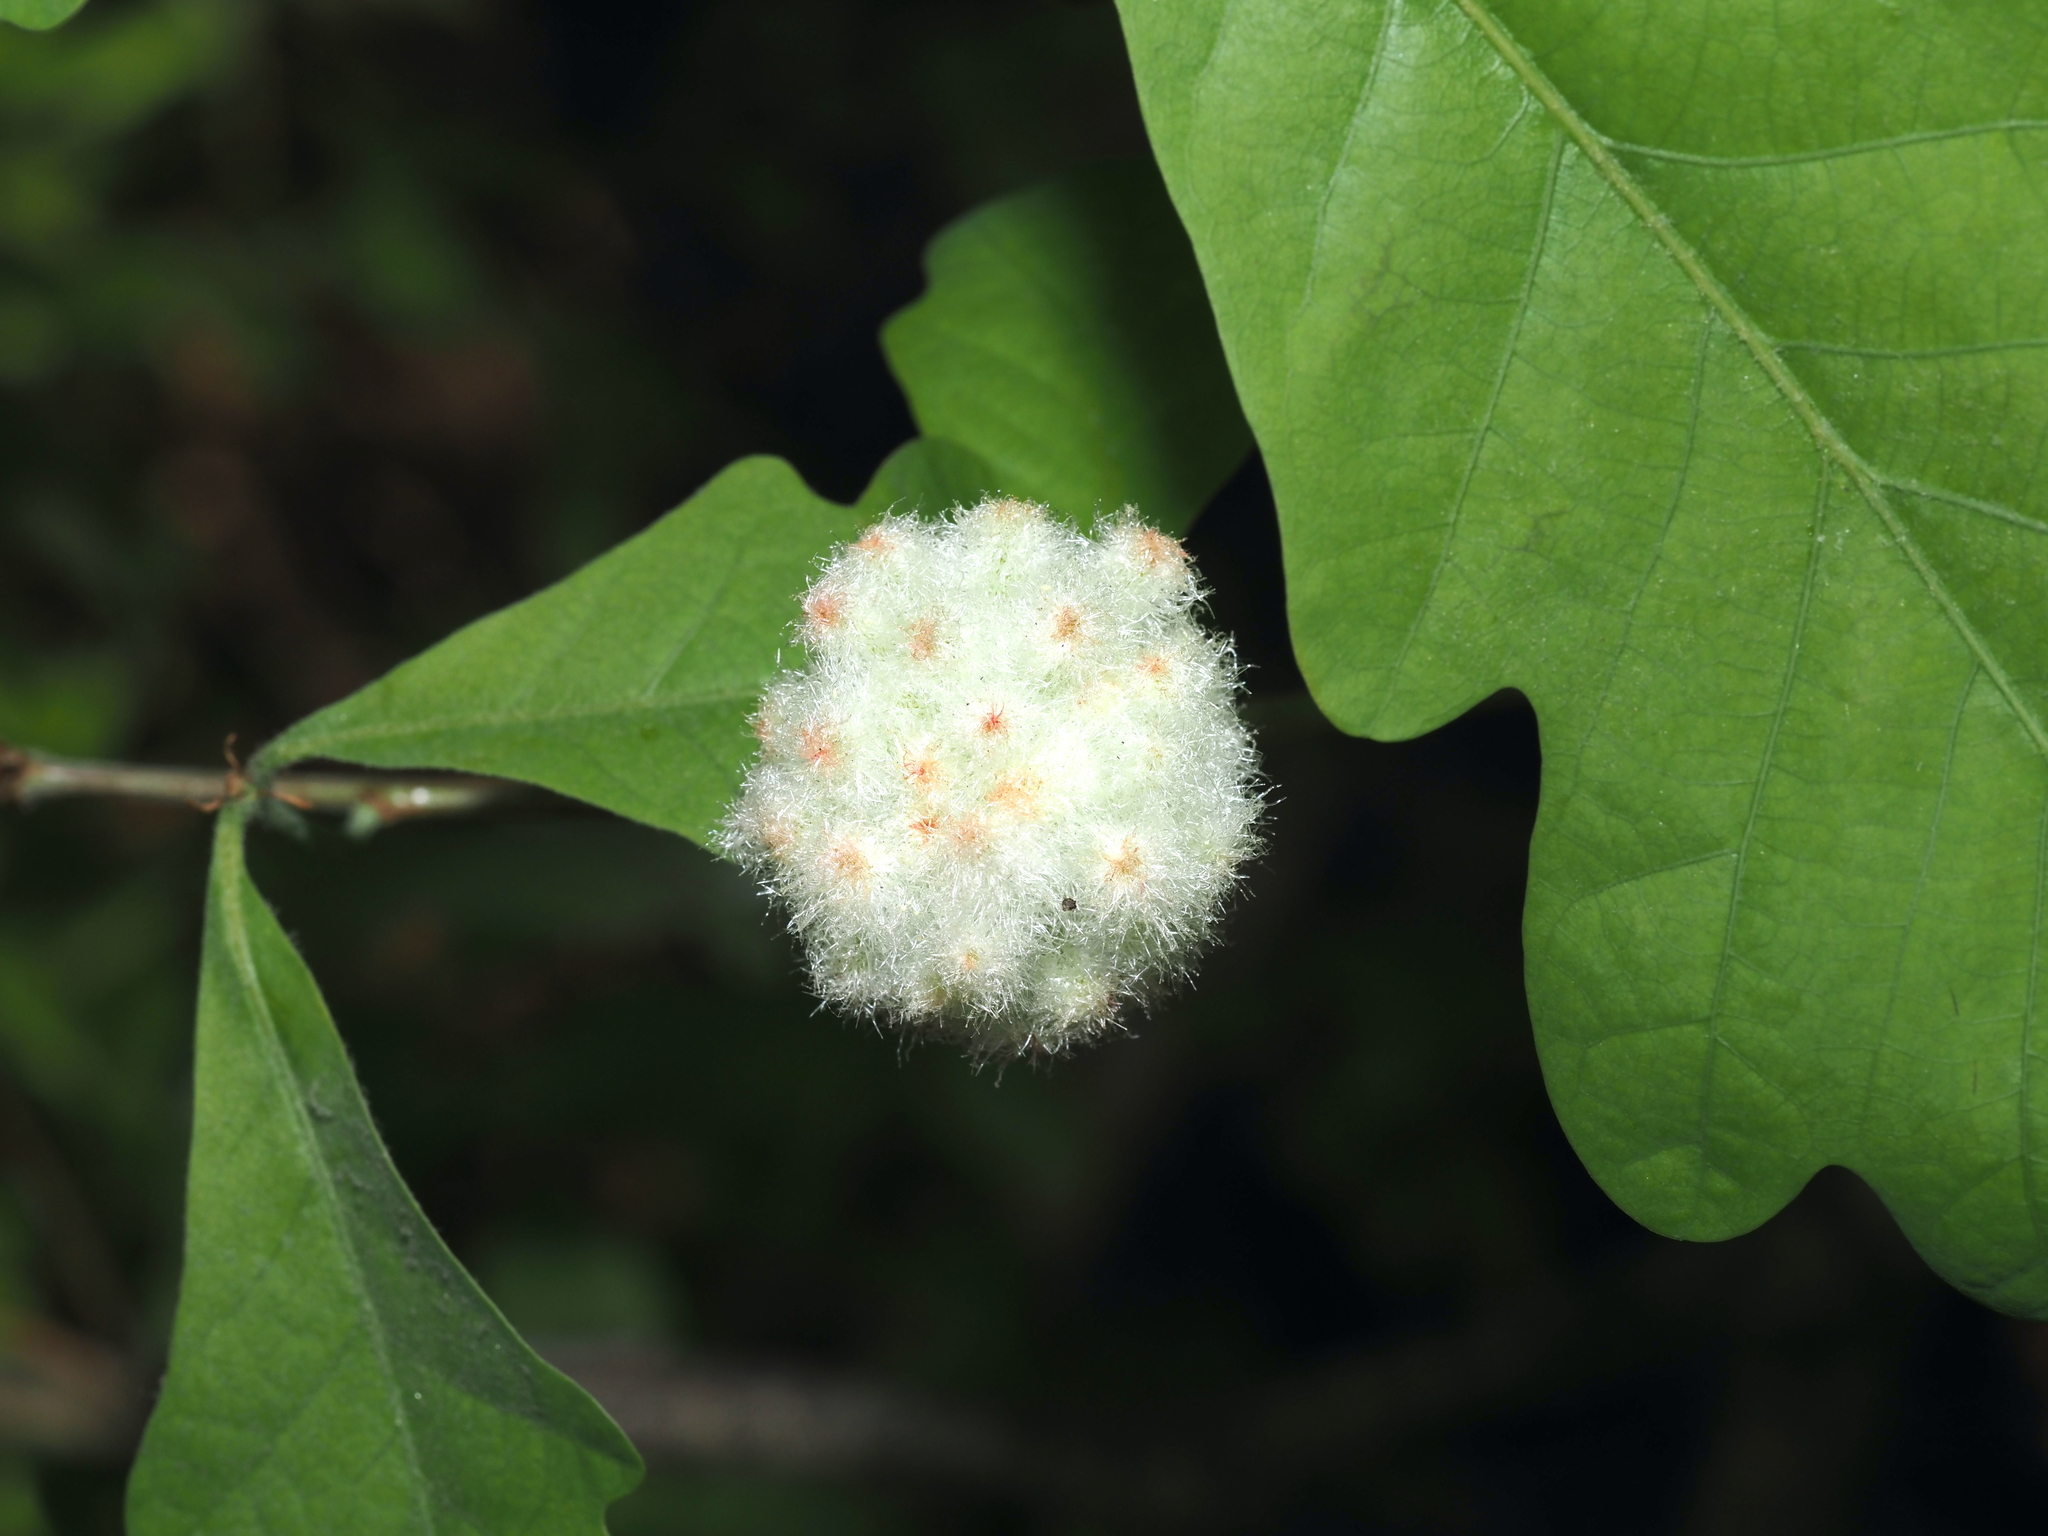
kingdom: Animalia
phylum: Arthropoda
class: Insecta
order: Hymenoptera
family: Cynipidae
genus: Callirhytis
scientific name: Callirhytis
